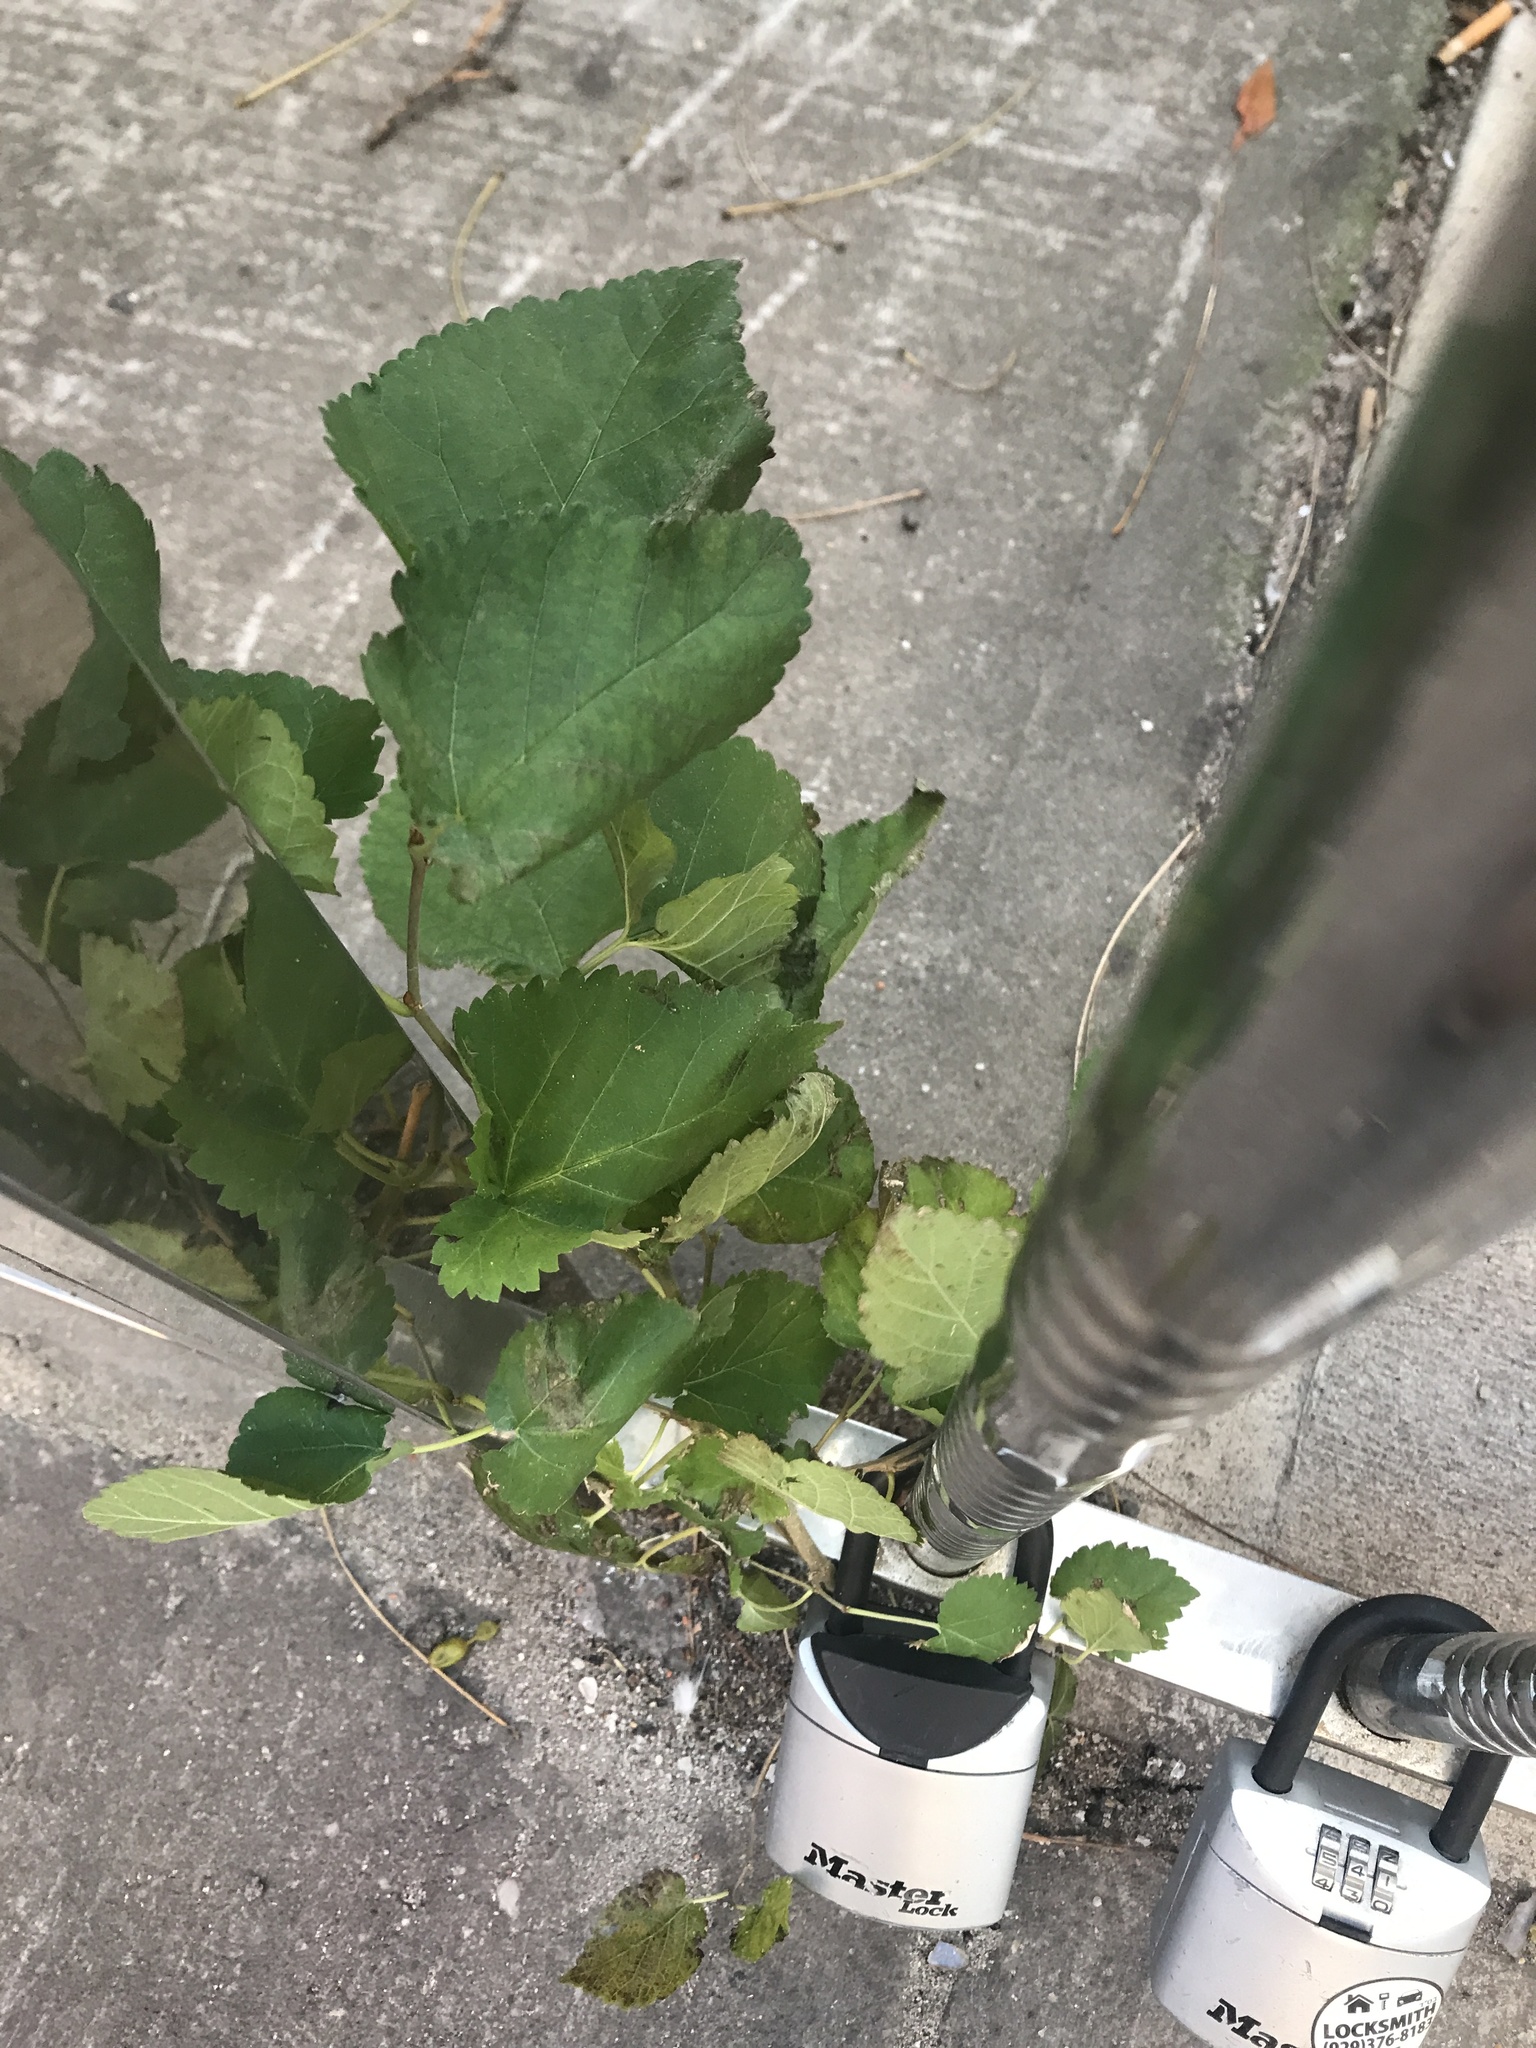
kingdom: Plantae
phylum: Tracheophyta
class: Magnoliopsida
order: Rosales
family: Moraceae
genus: Morus
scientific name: Morus alba
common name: White mulberry
